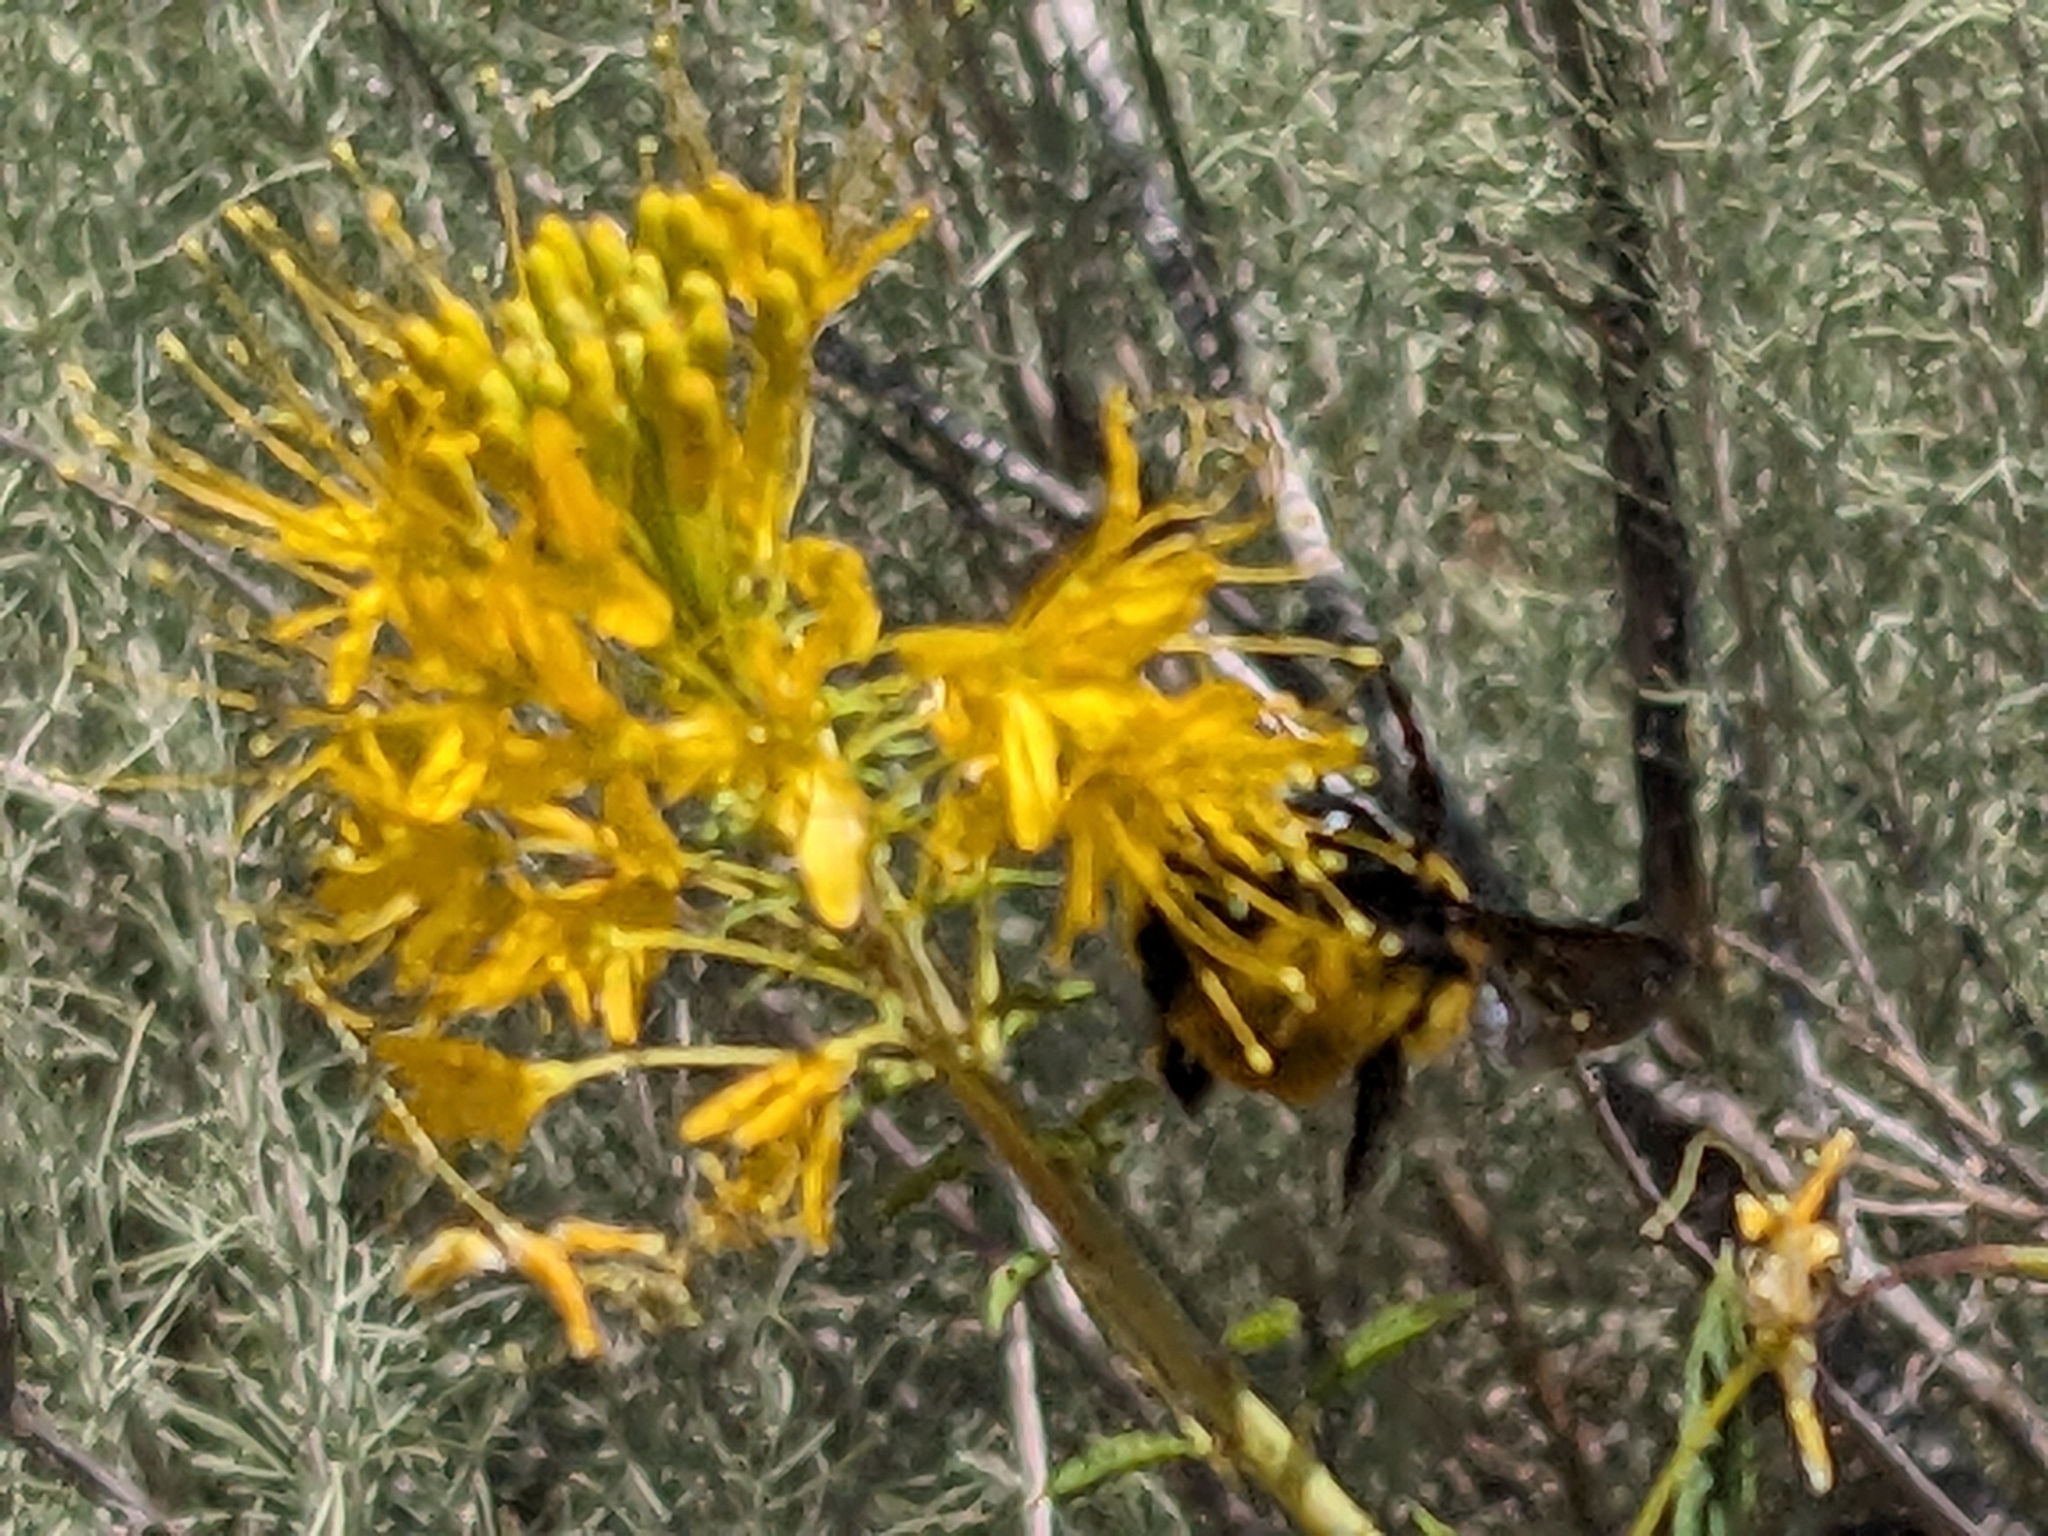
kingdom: Animalia
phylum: Arthropoda
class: Insecta
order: Hymenoptera
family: Apidae
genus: Bombus
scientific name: Bombus morrisoni
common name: Morrison bumble bee
